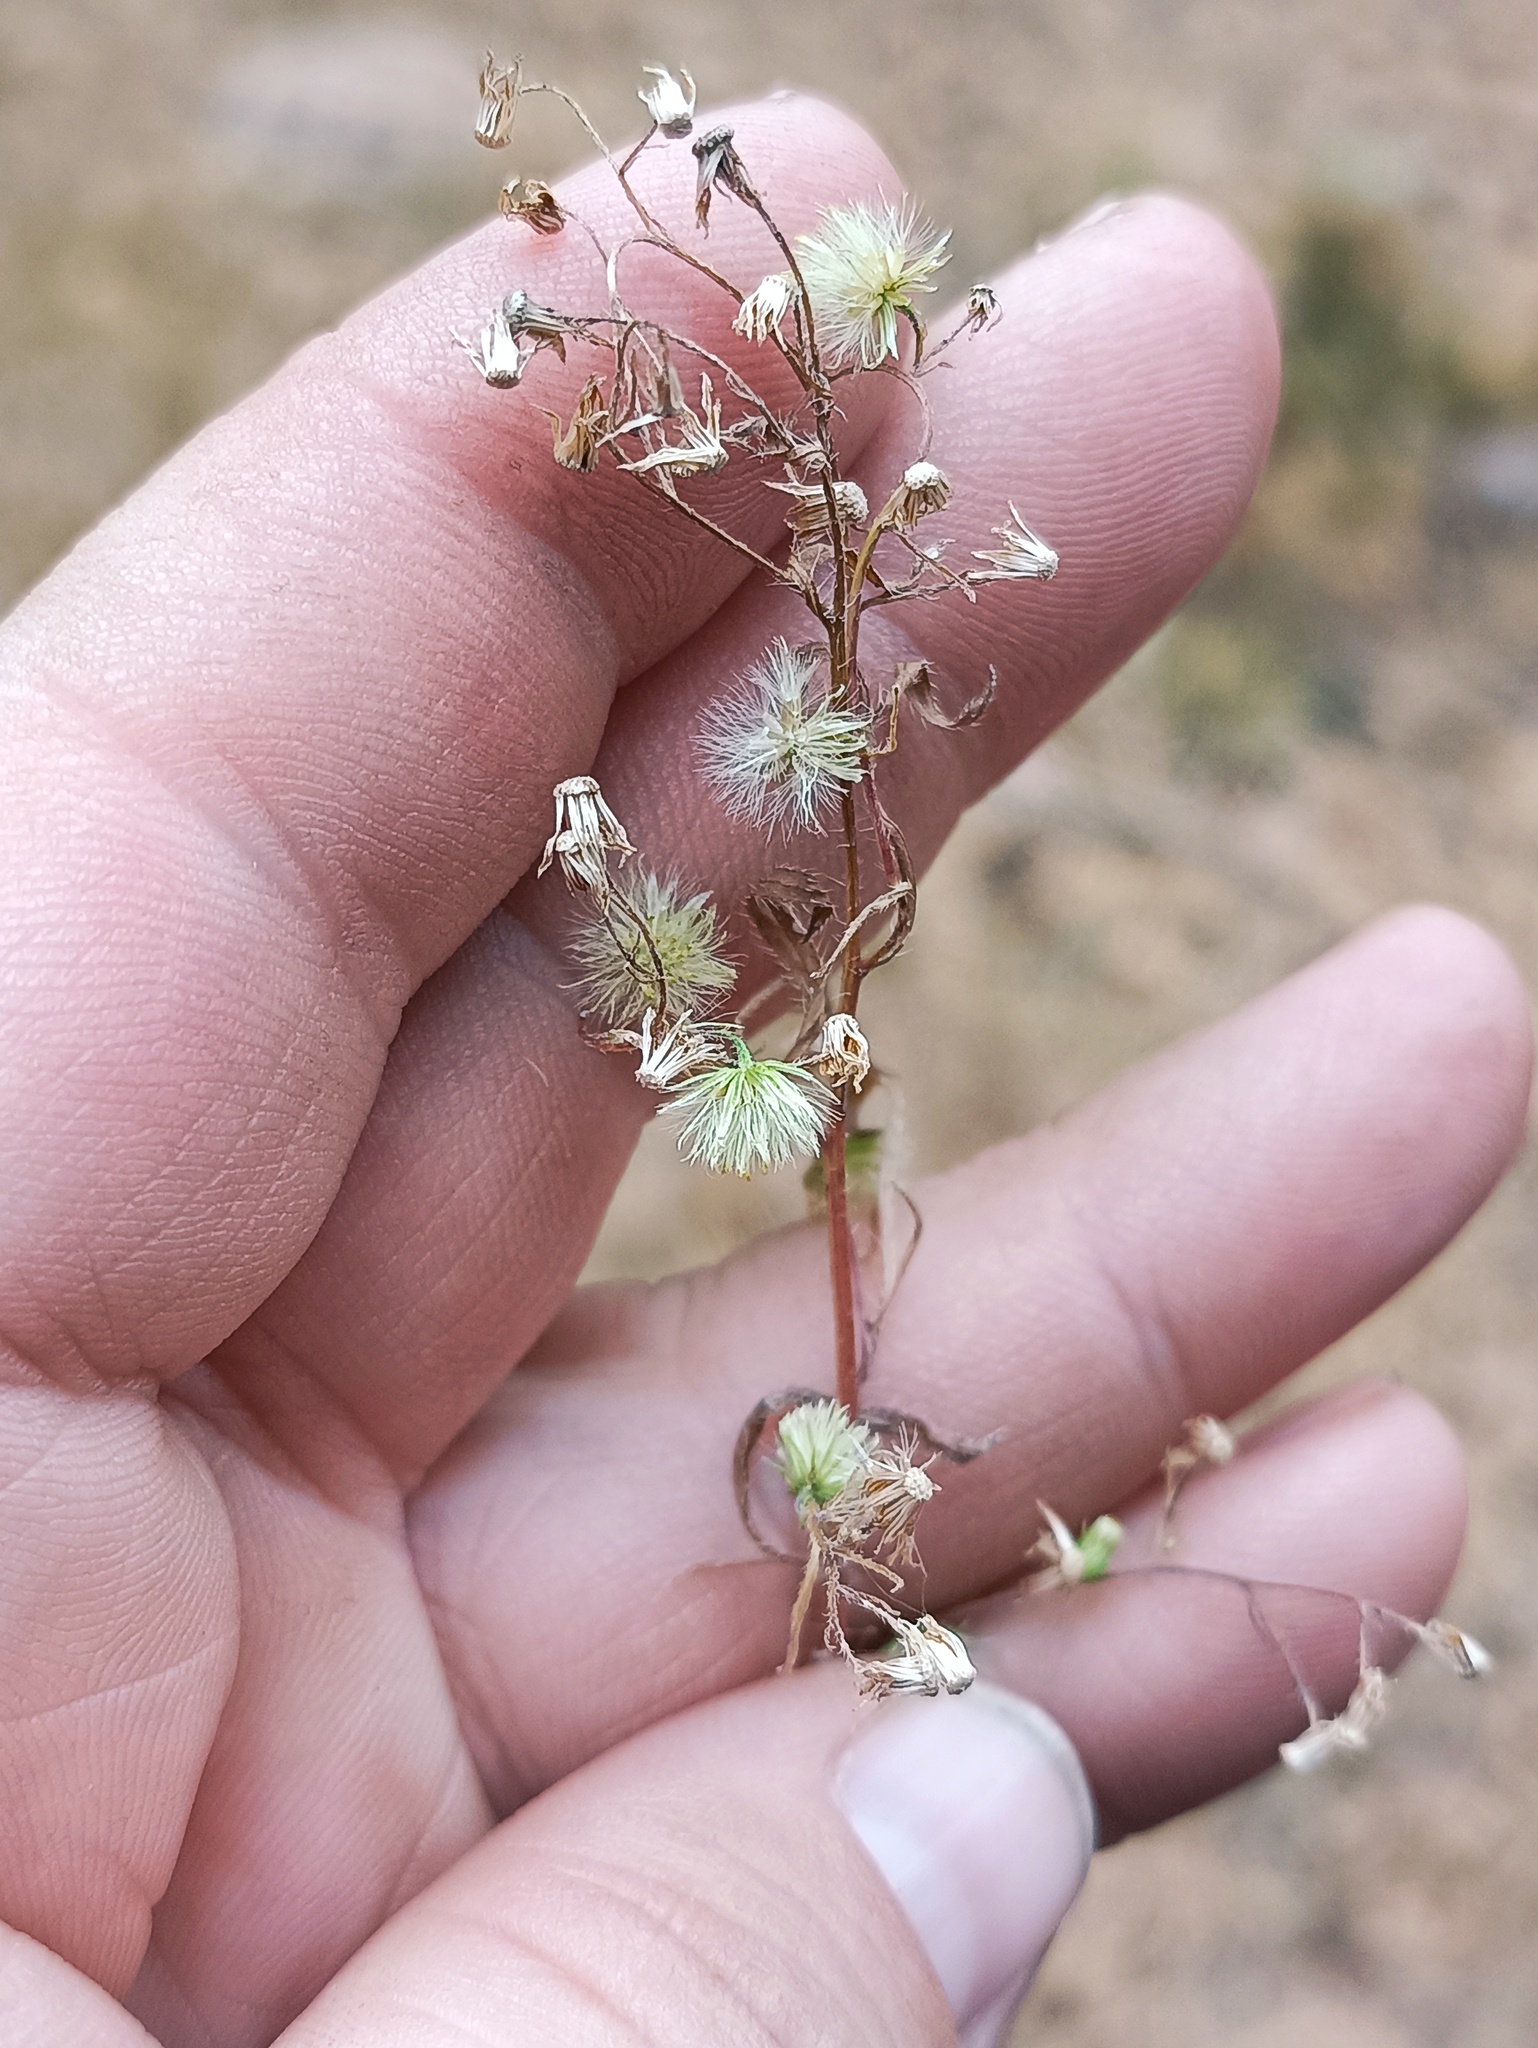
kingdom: Plantae
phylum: Tracheophyta
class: Magnoliopsida
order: Asterales
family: Asteraceae
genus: Erigeron
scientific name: Erigeron canadensis
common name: Canadian fleabane
